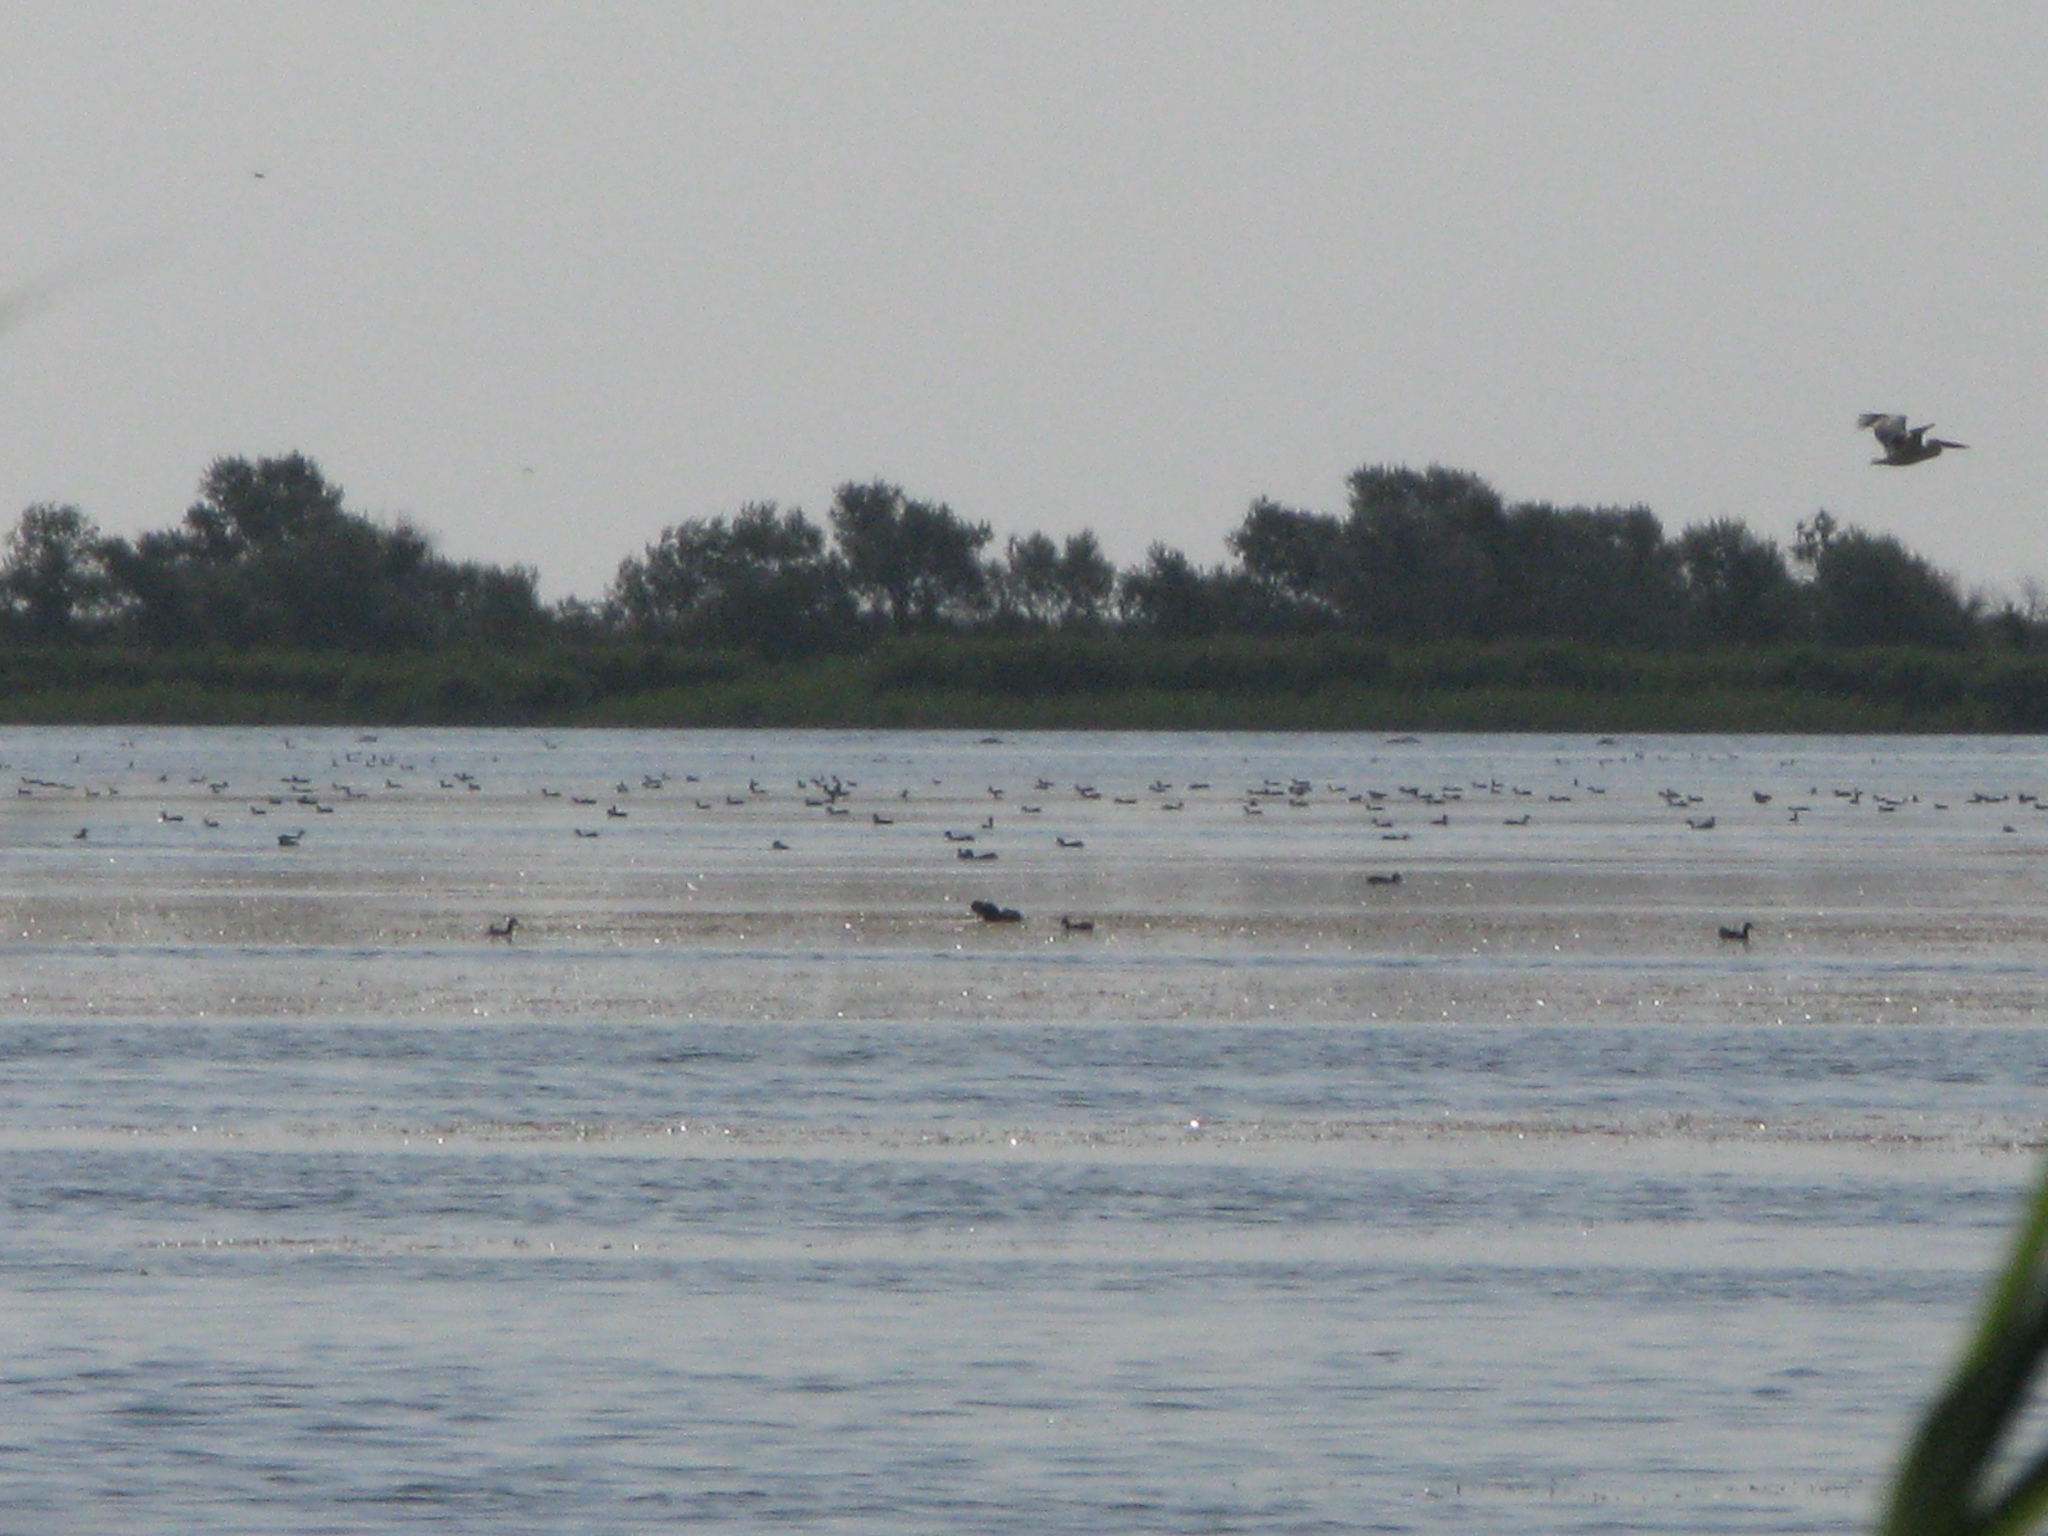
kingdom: Animalia
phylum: Chordata
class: Aves
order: Pelecaniformes
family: Pelecanidae
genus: Pelecanus
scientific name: Pelecanus onocrotalus
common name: Great white pelican
